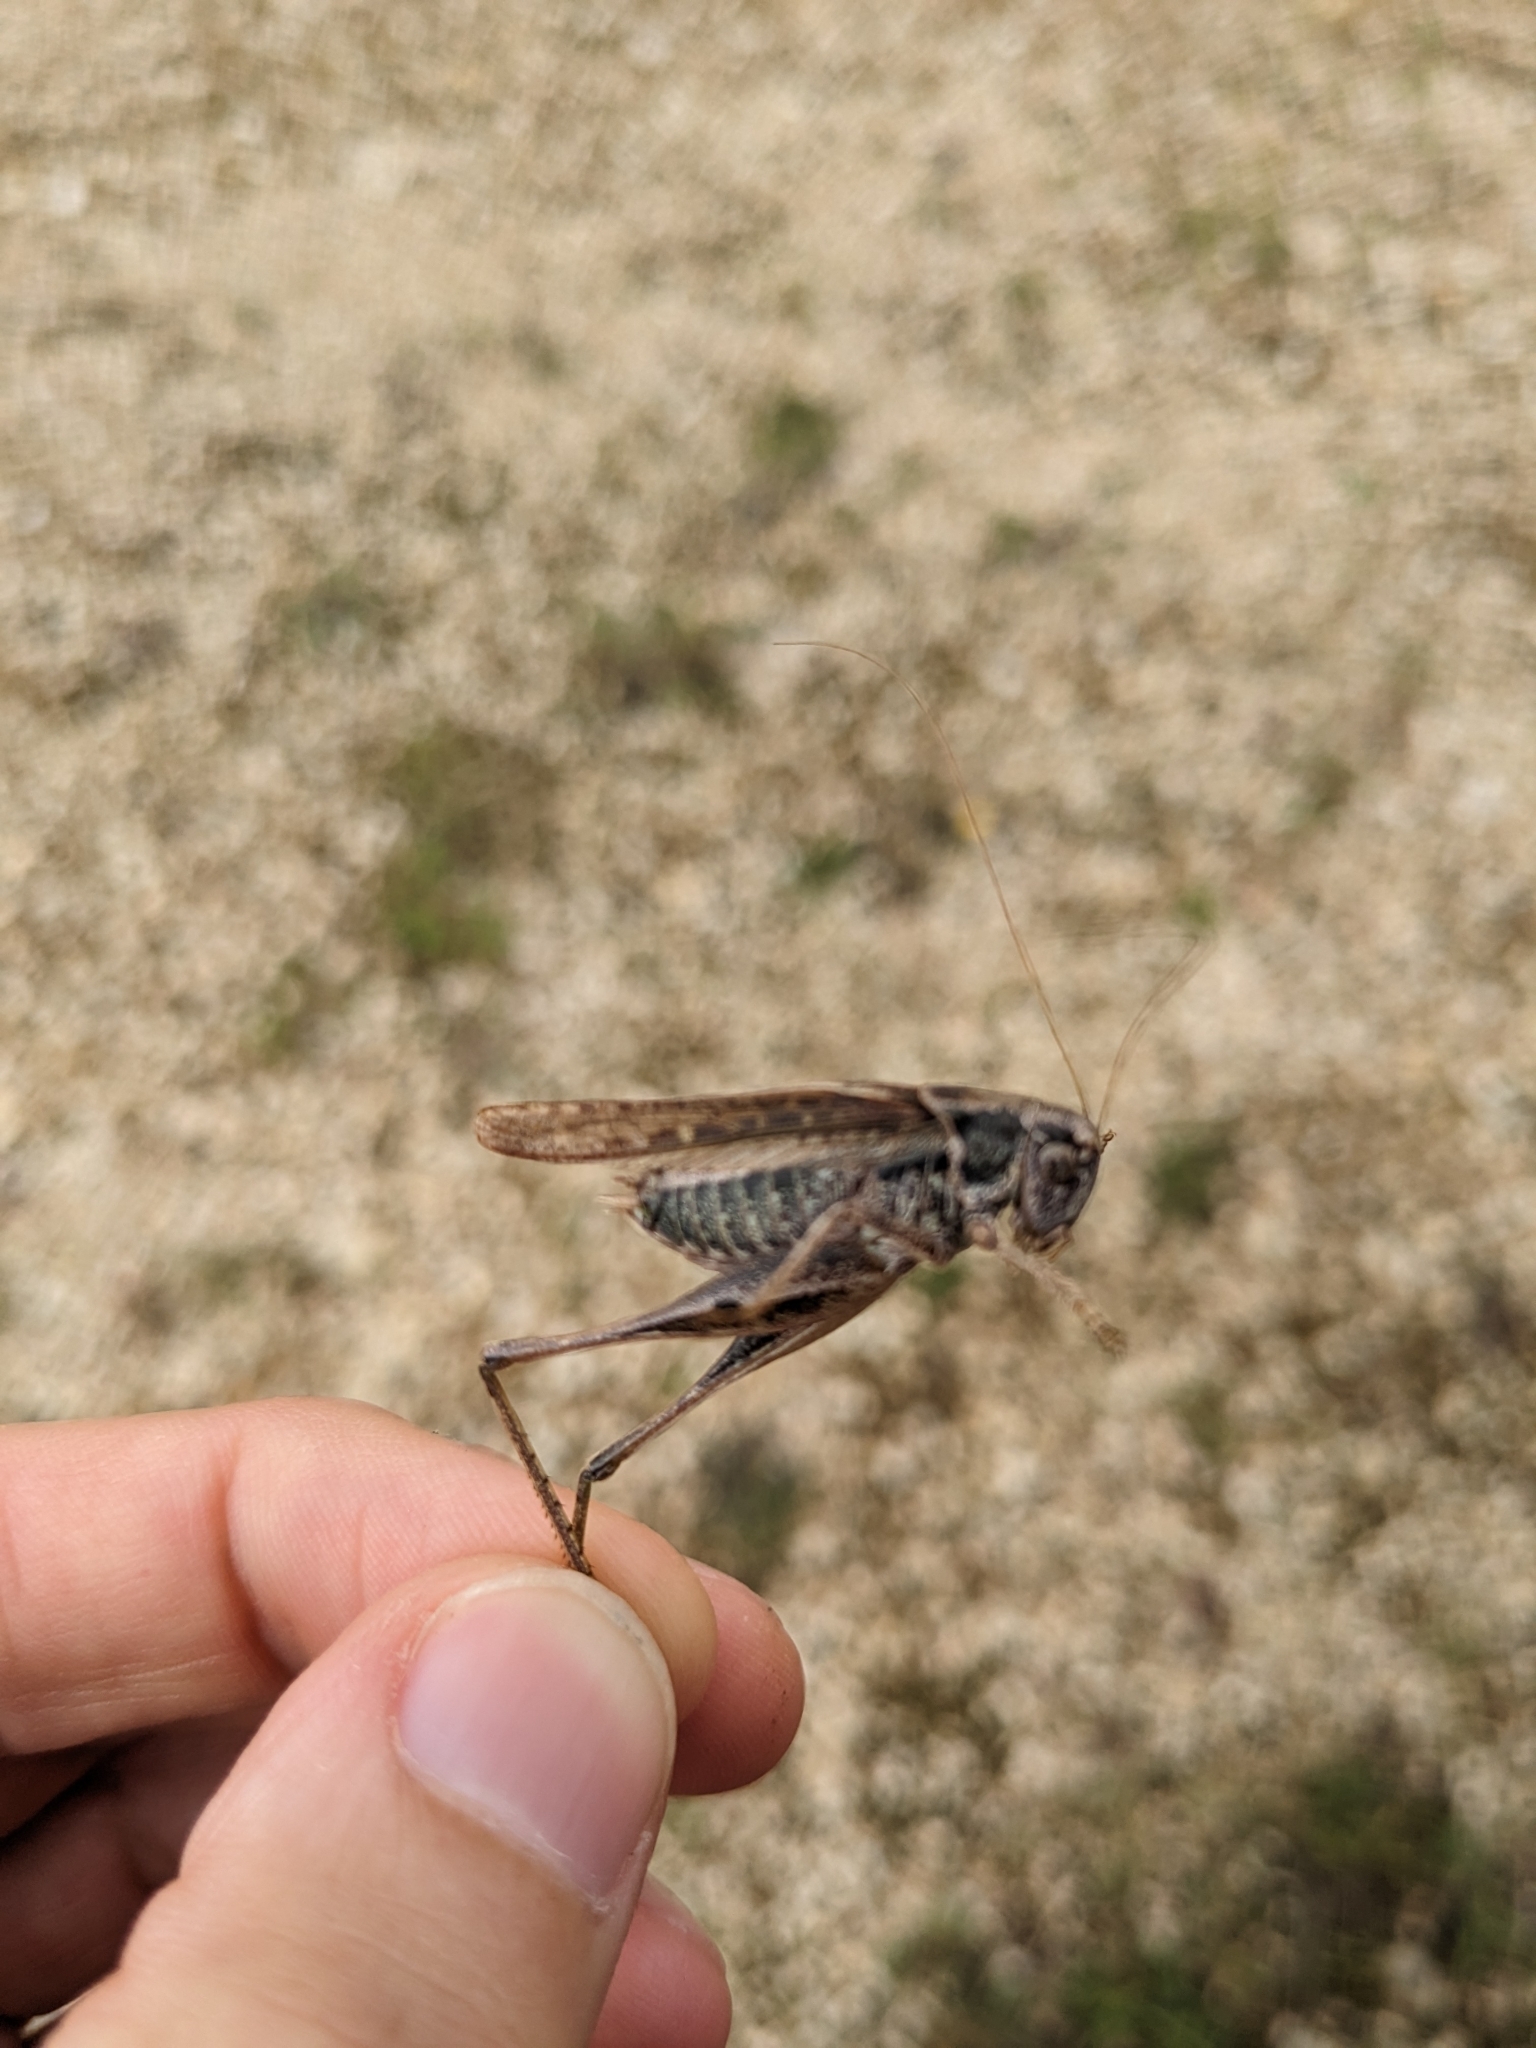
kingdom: Animalia
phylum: Arthropoda
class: Insecta
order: Orthoptera
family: Tettigoniidae
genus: Platycleis
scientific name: Platycleis albopunctata
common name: Grey bush-cricket
